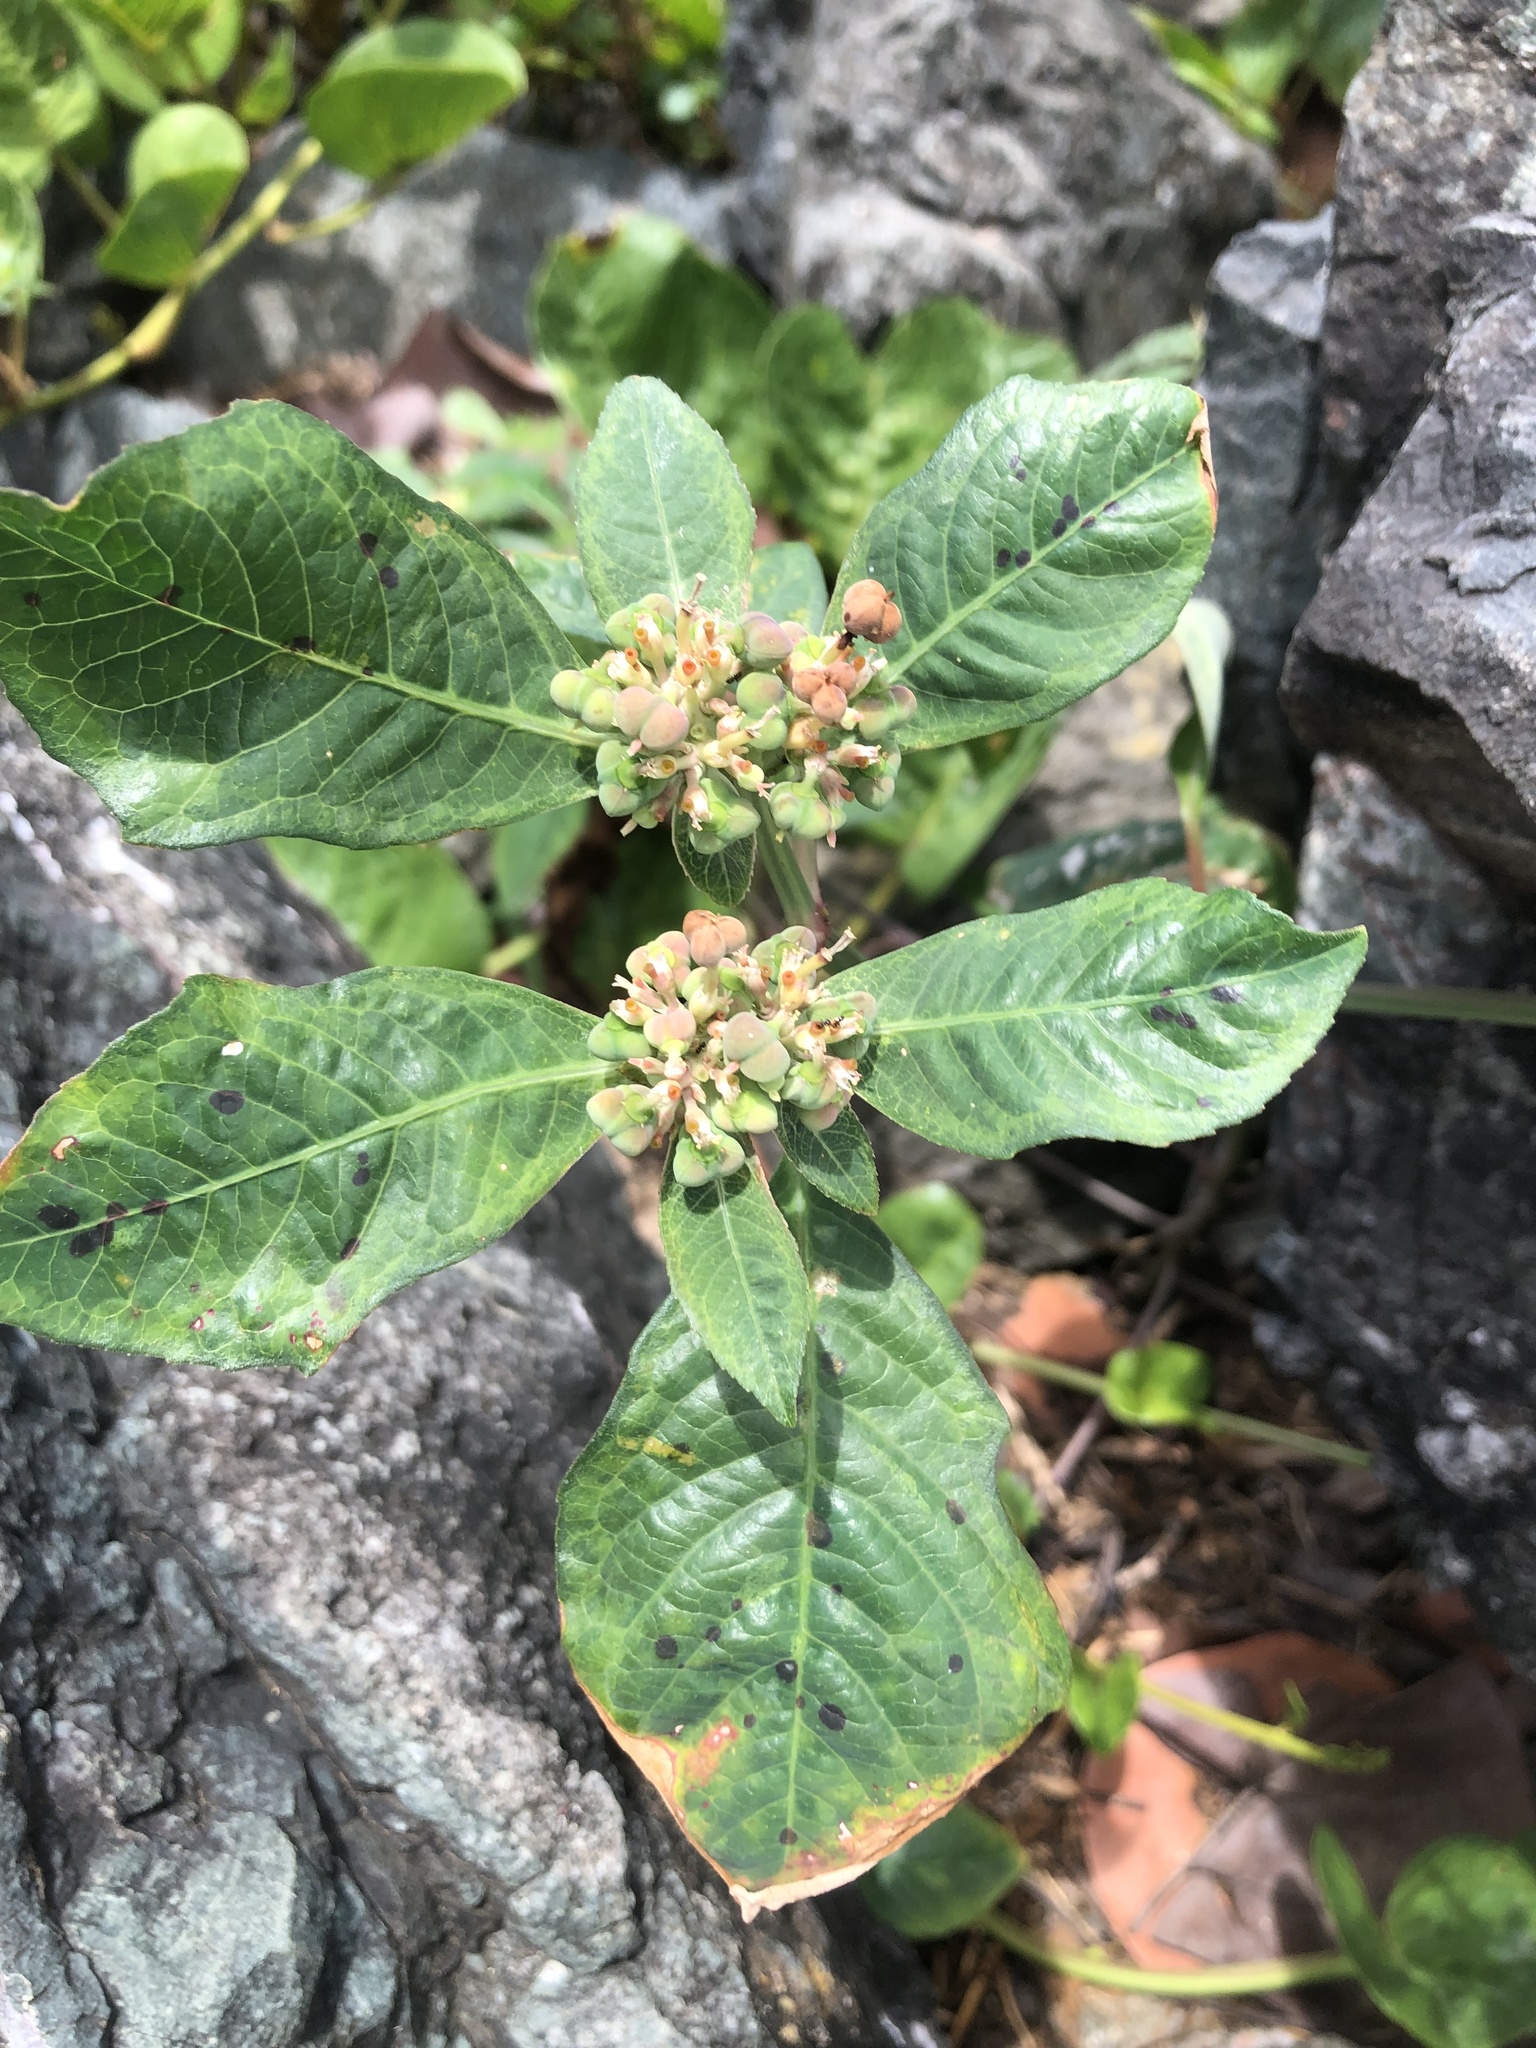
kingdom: Plantae
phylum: Tracheophyta
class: Magnoliopsida
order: Malpighiales
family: Euphorbiaceae
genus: Euphorbia
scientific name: Euphorbia heterophylla
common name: Mexican fireplant
